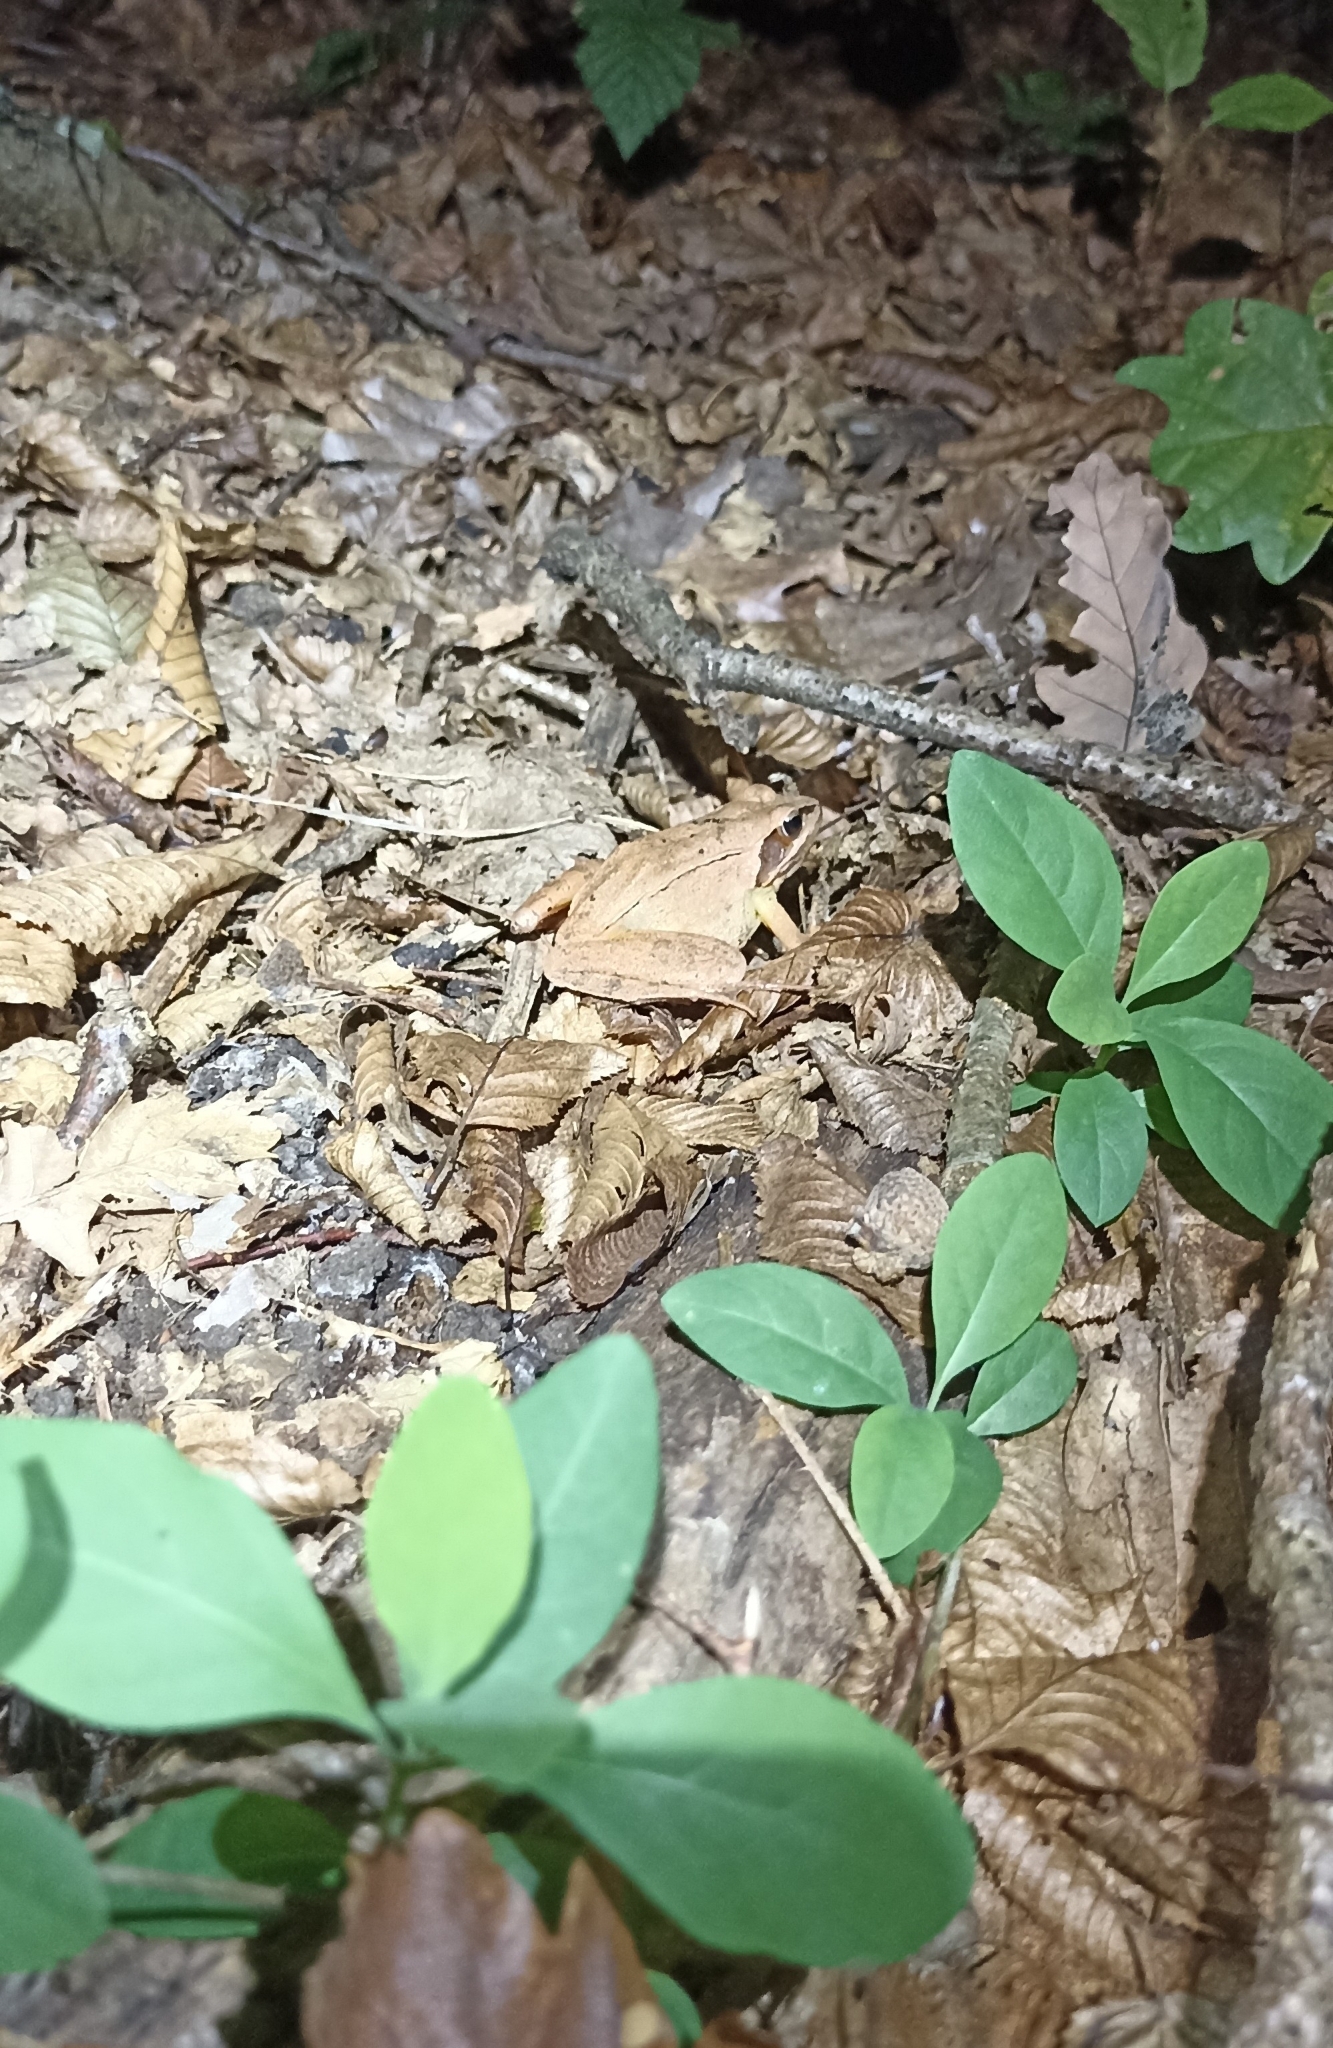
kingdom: Animalia
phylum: Chordata
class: Amphibia
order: Anura
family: Ranidae
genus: Rana
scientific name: Rana dalmatina
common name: Agile frog
